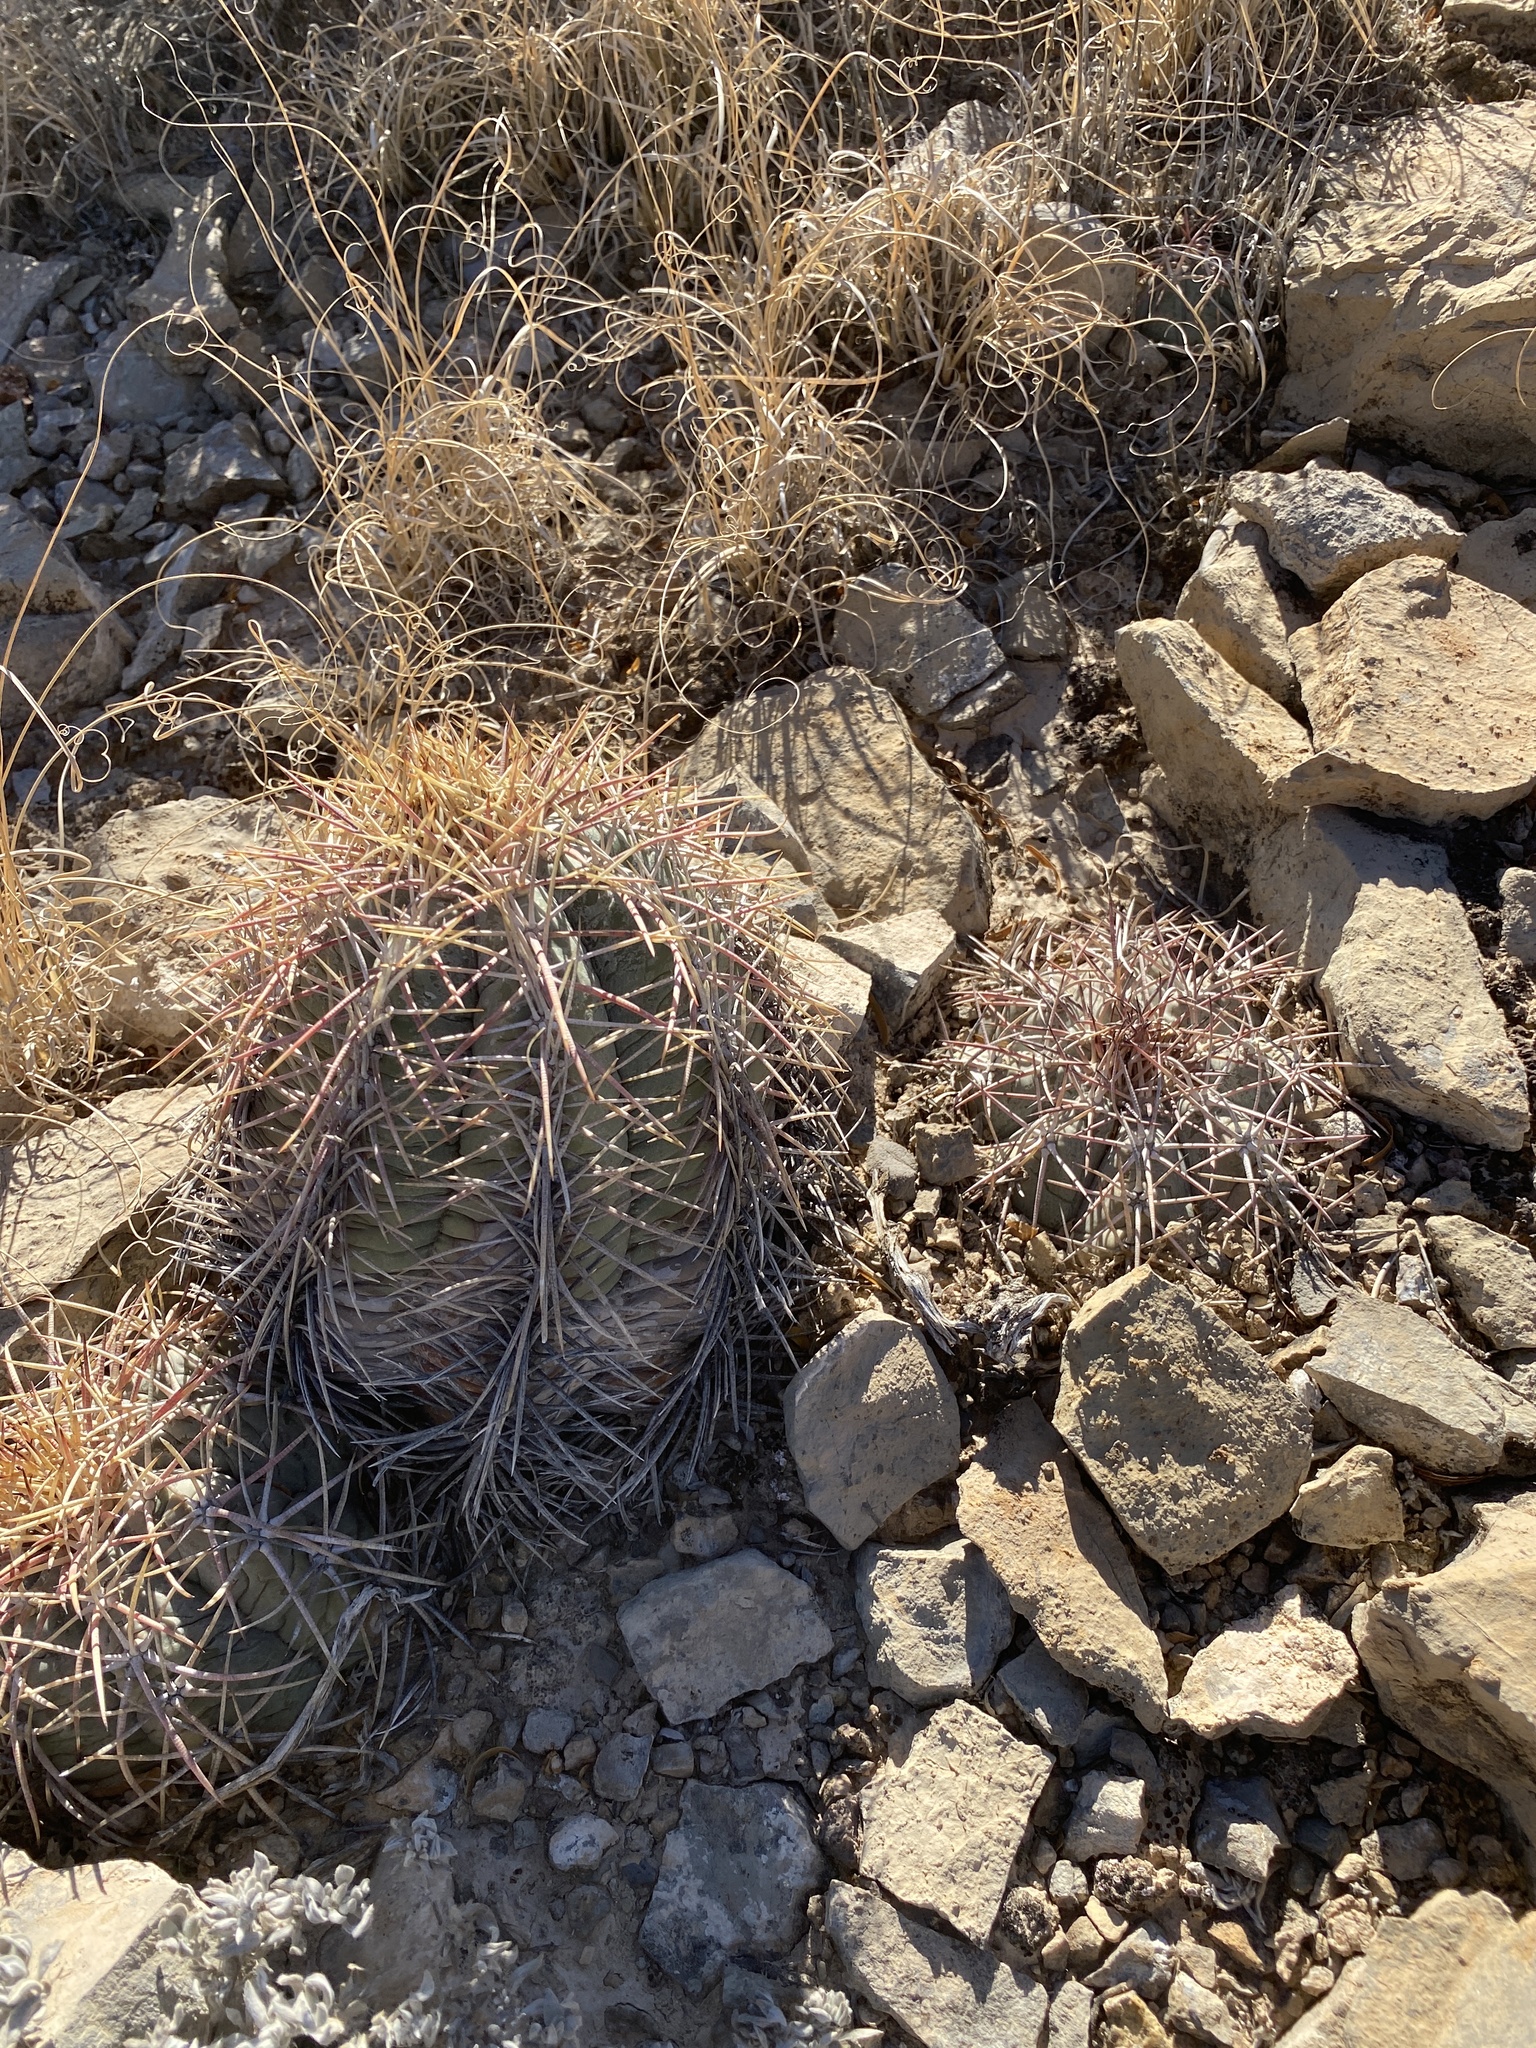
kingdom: Plantae
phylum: Tracheophyta
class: Magnoliopsida
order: Caryophyllales
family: Cactaceae
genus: Echinocactus
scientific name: Echinocactus horizonthalonius
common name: Devilshead
